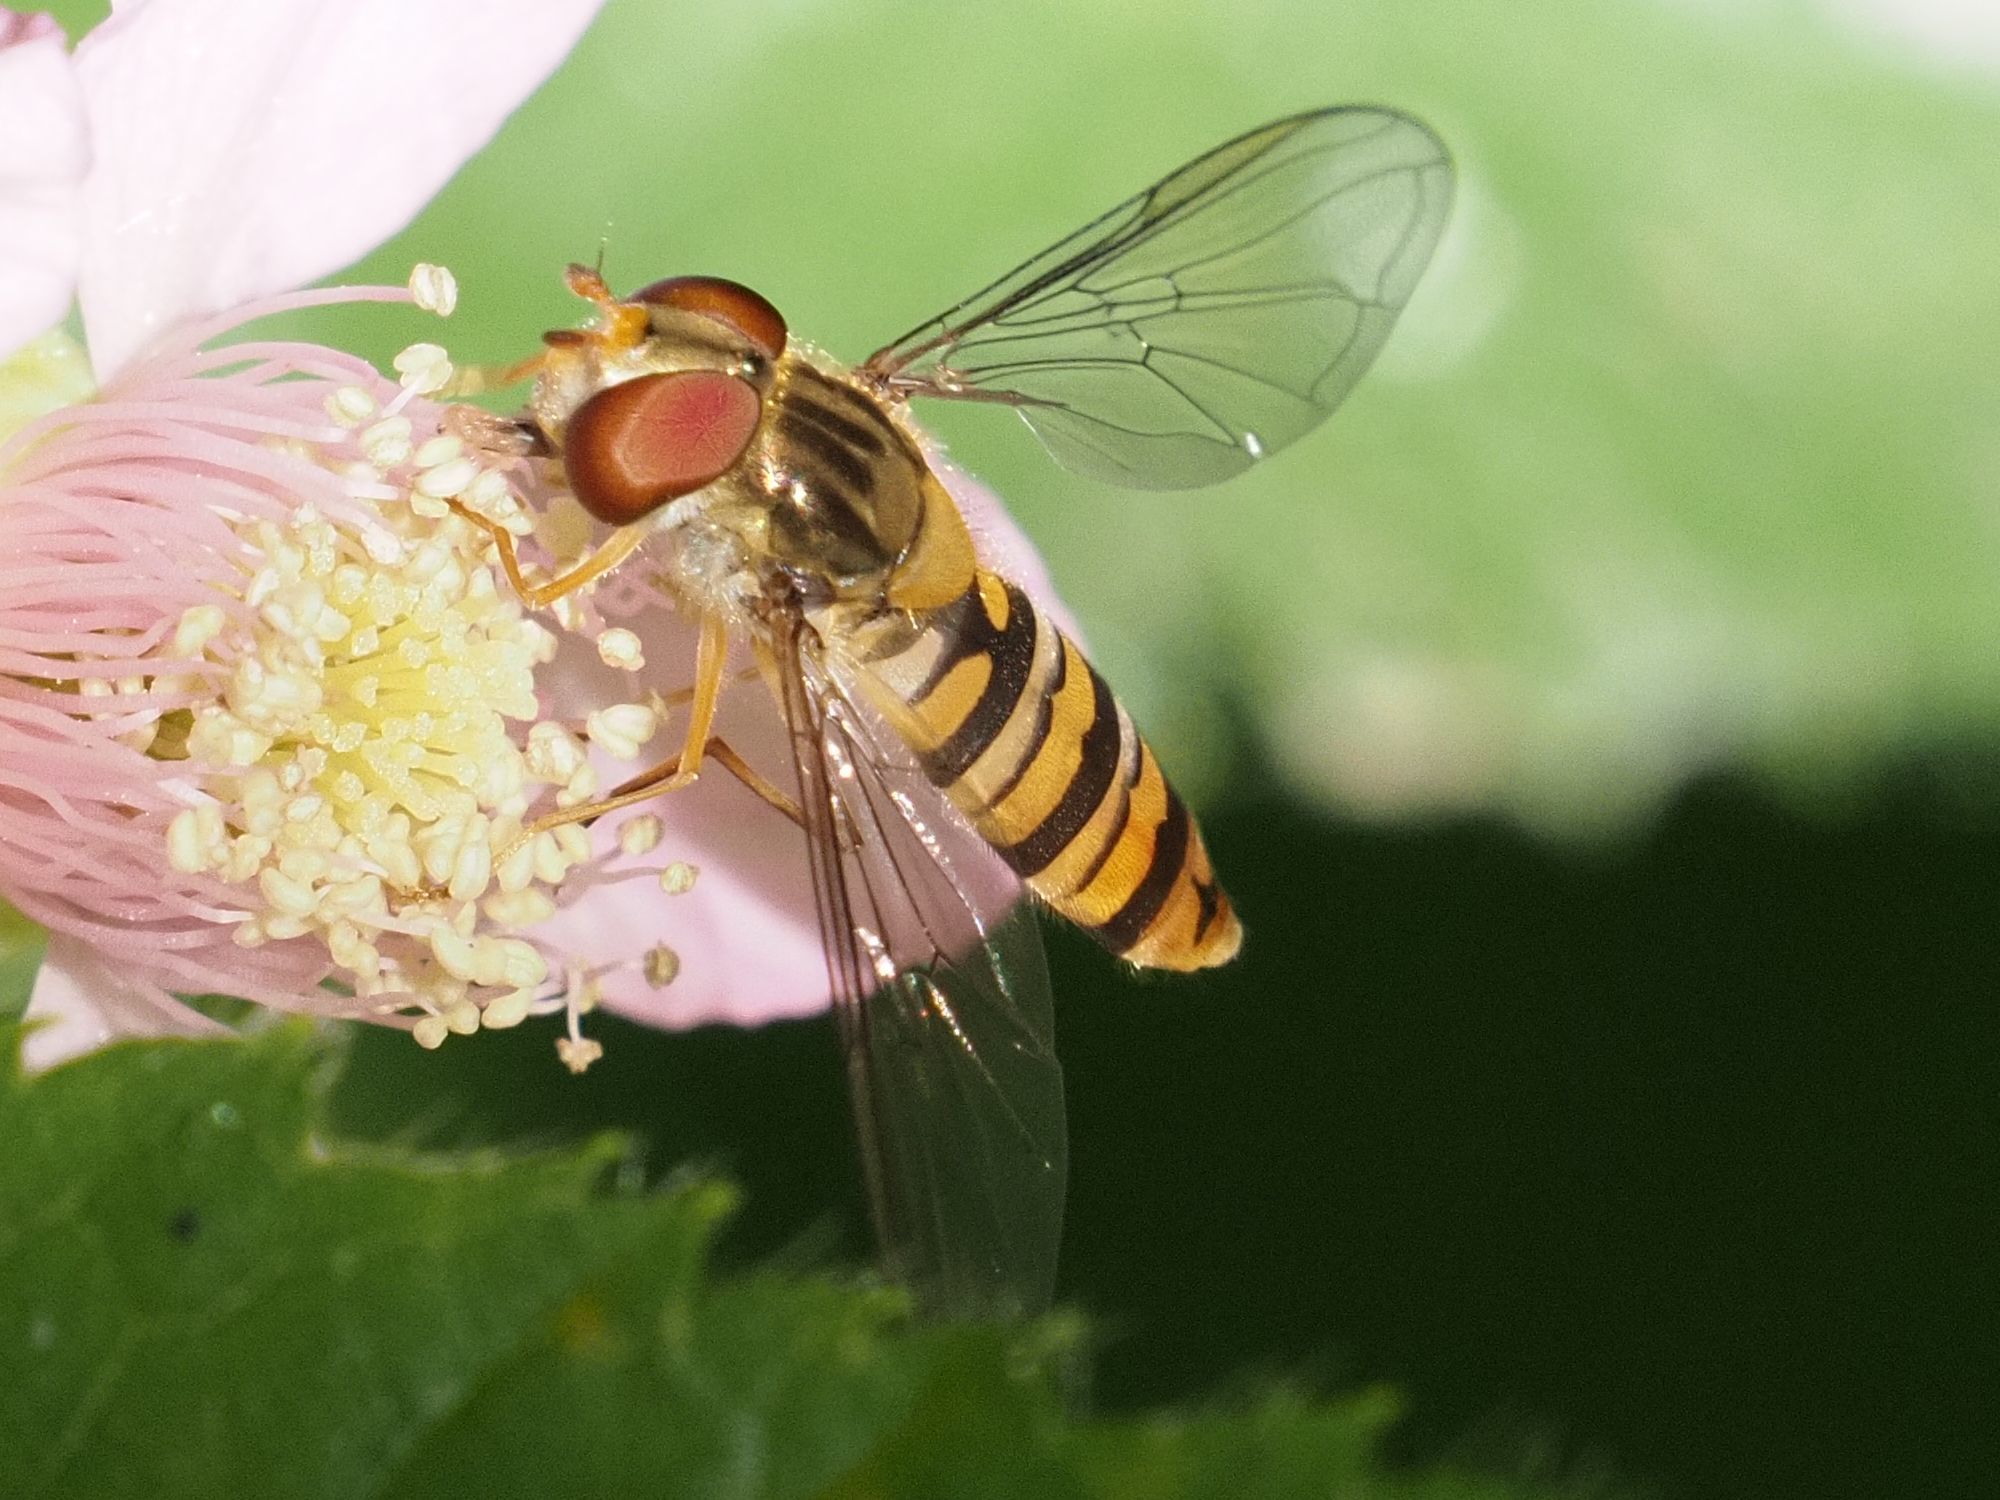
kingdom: Animalia
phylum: Arthropoda
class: Insecta
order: Diptera
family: Syrphidae
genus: Episyrphus
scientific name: Episyrphus balteatus
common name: Marmalade hoverfly
